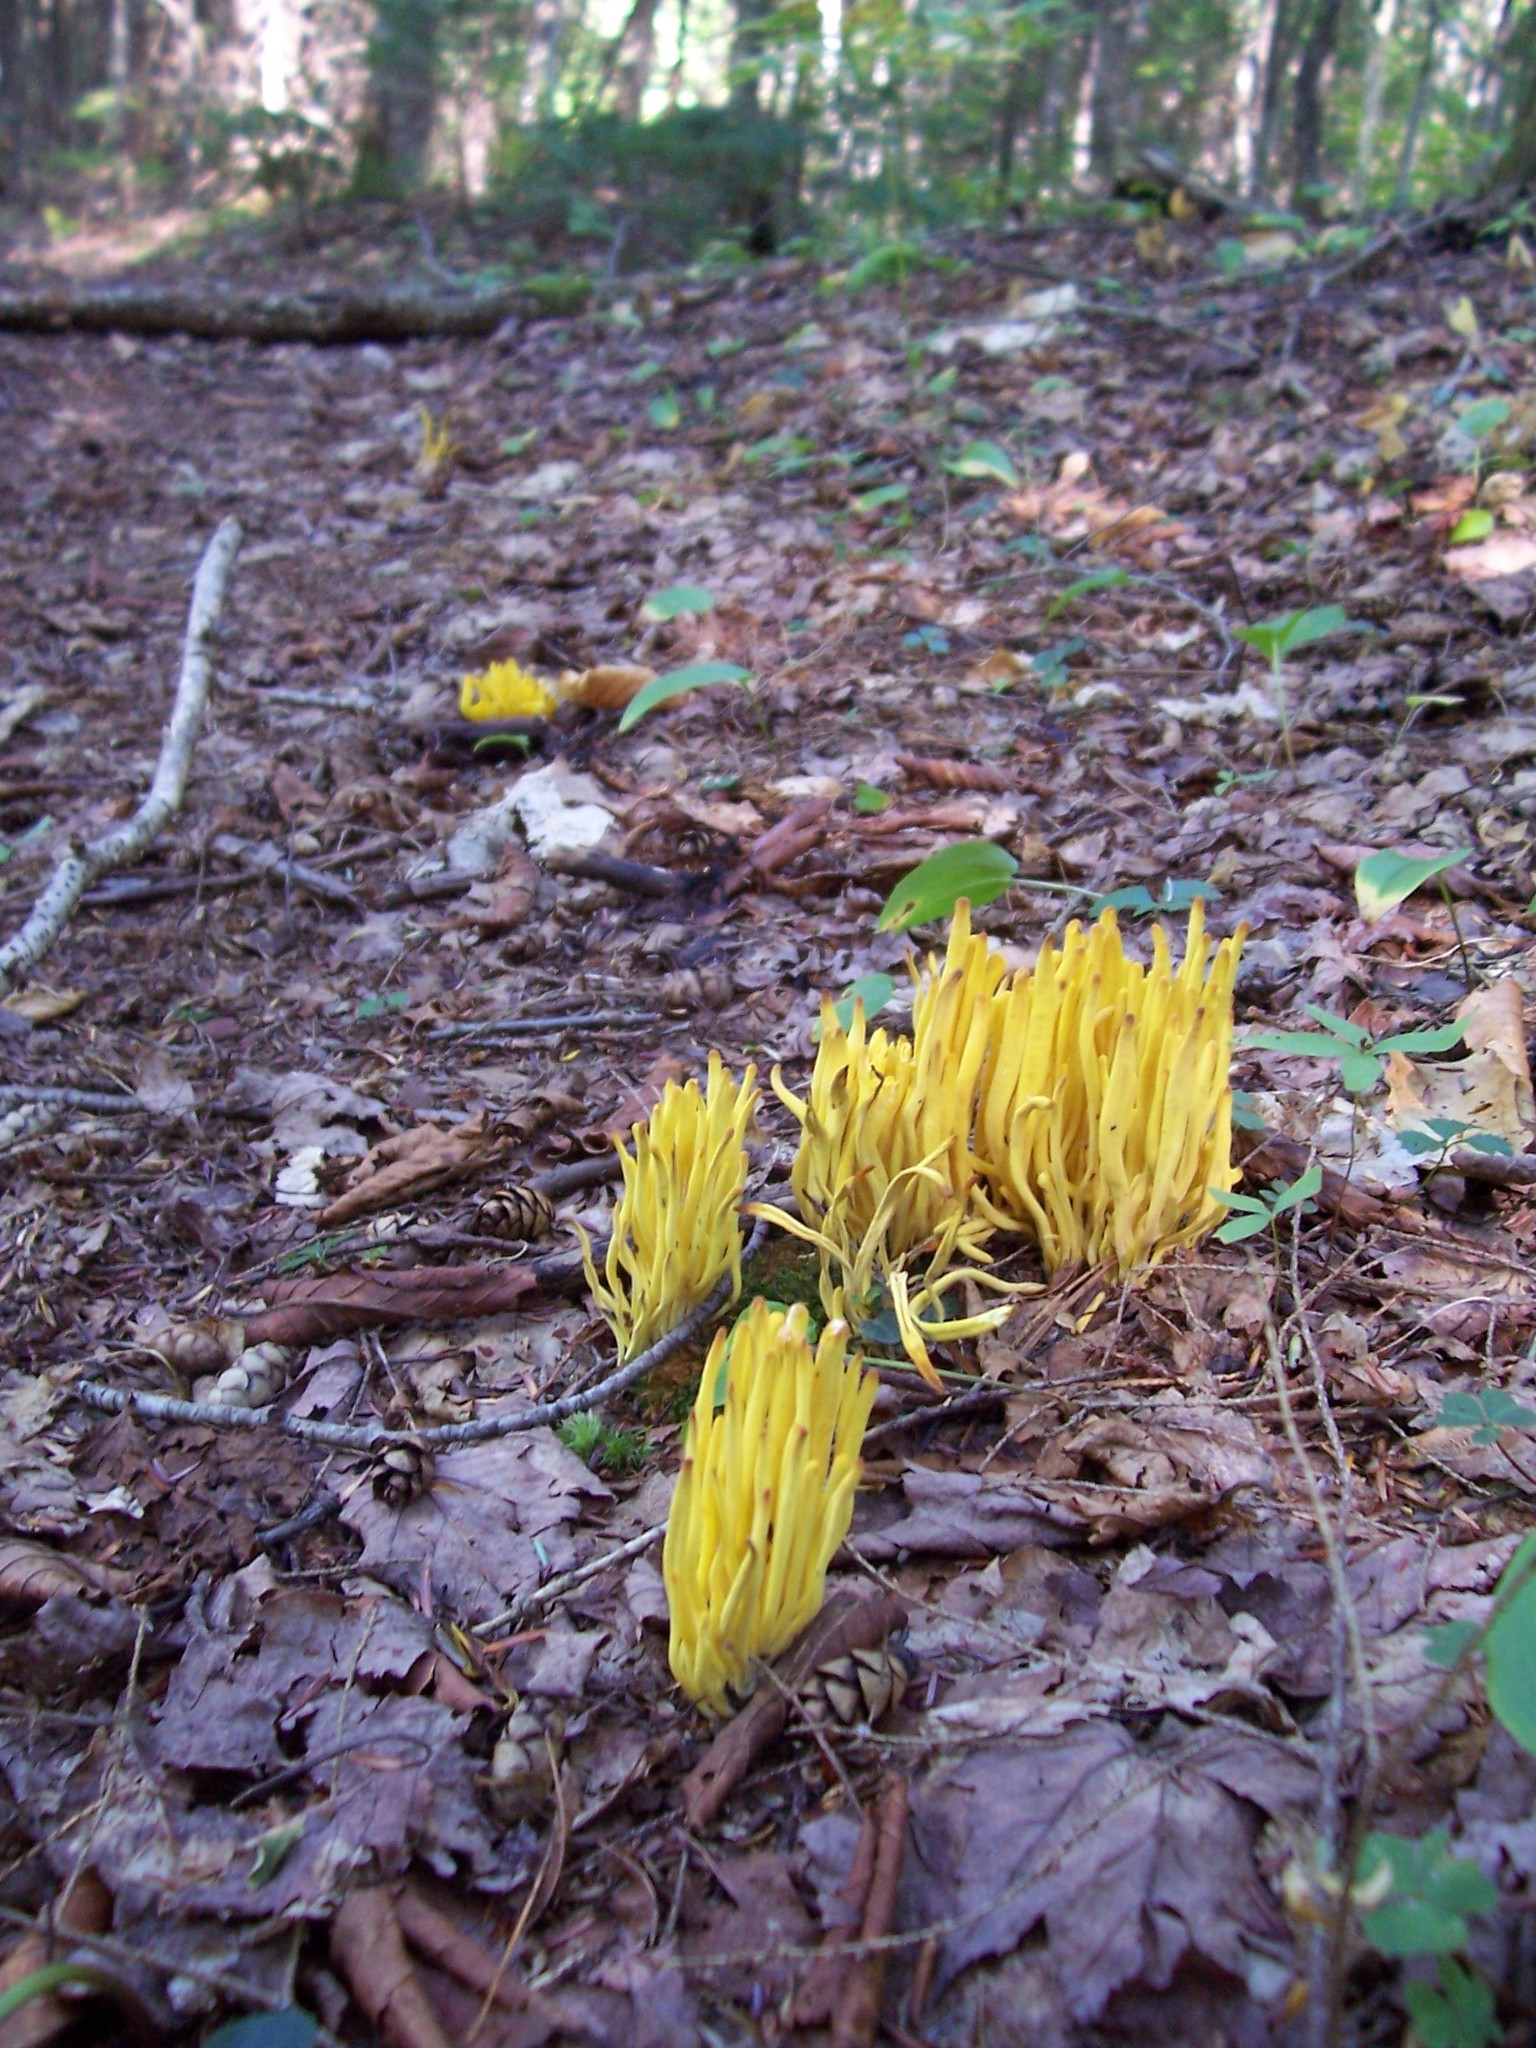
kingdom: Fungi
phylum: Basidiomycota
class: Agaricomycetes
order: Agaricales
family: Clavariaceae
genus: Clavulinopsis
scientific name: Clavulinopsis fusiformis
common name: Golden spindles
